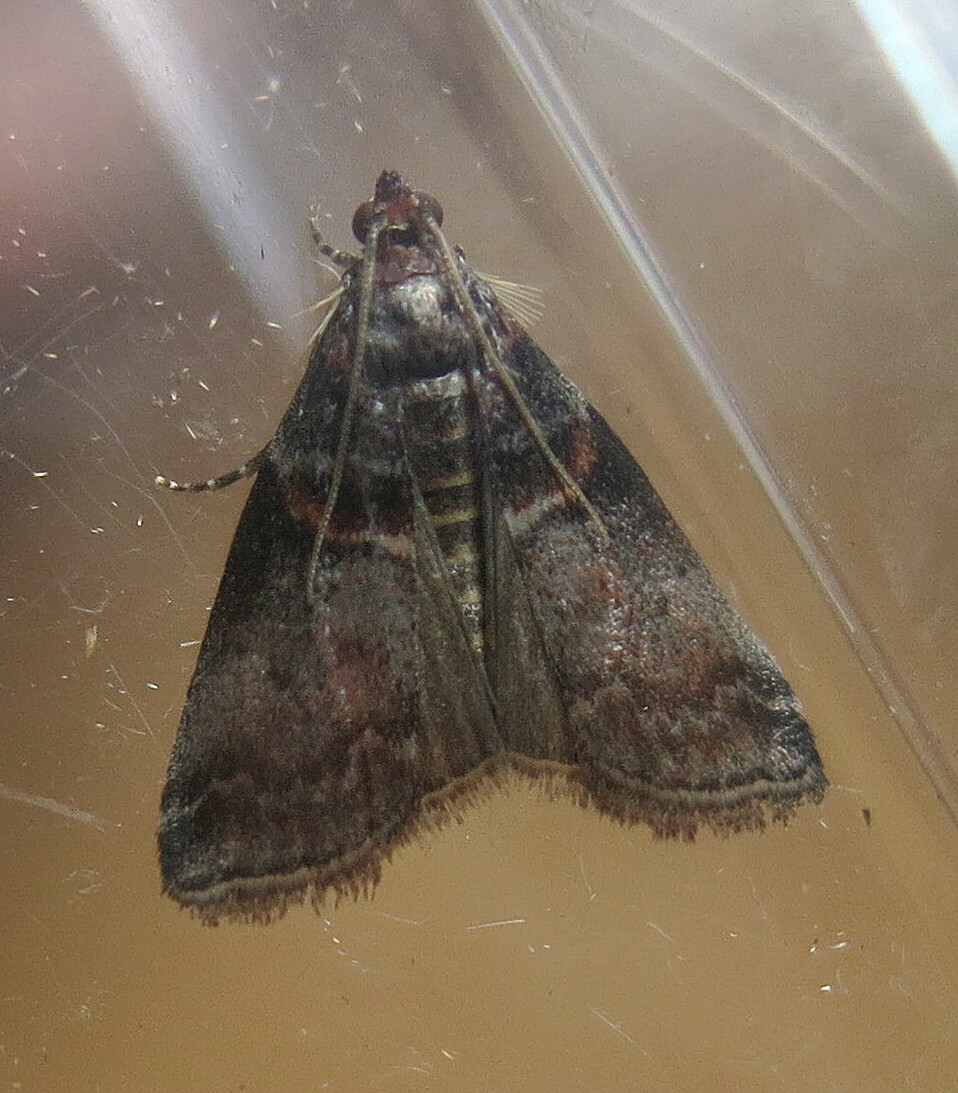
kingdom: Animalia
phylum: Arthropoda
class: Insecta
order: Lepidoptera
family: Pyralidae
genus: Acrobasis
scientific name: Acrobasis advenella
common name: Grey knot-horn
